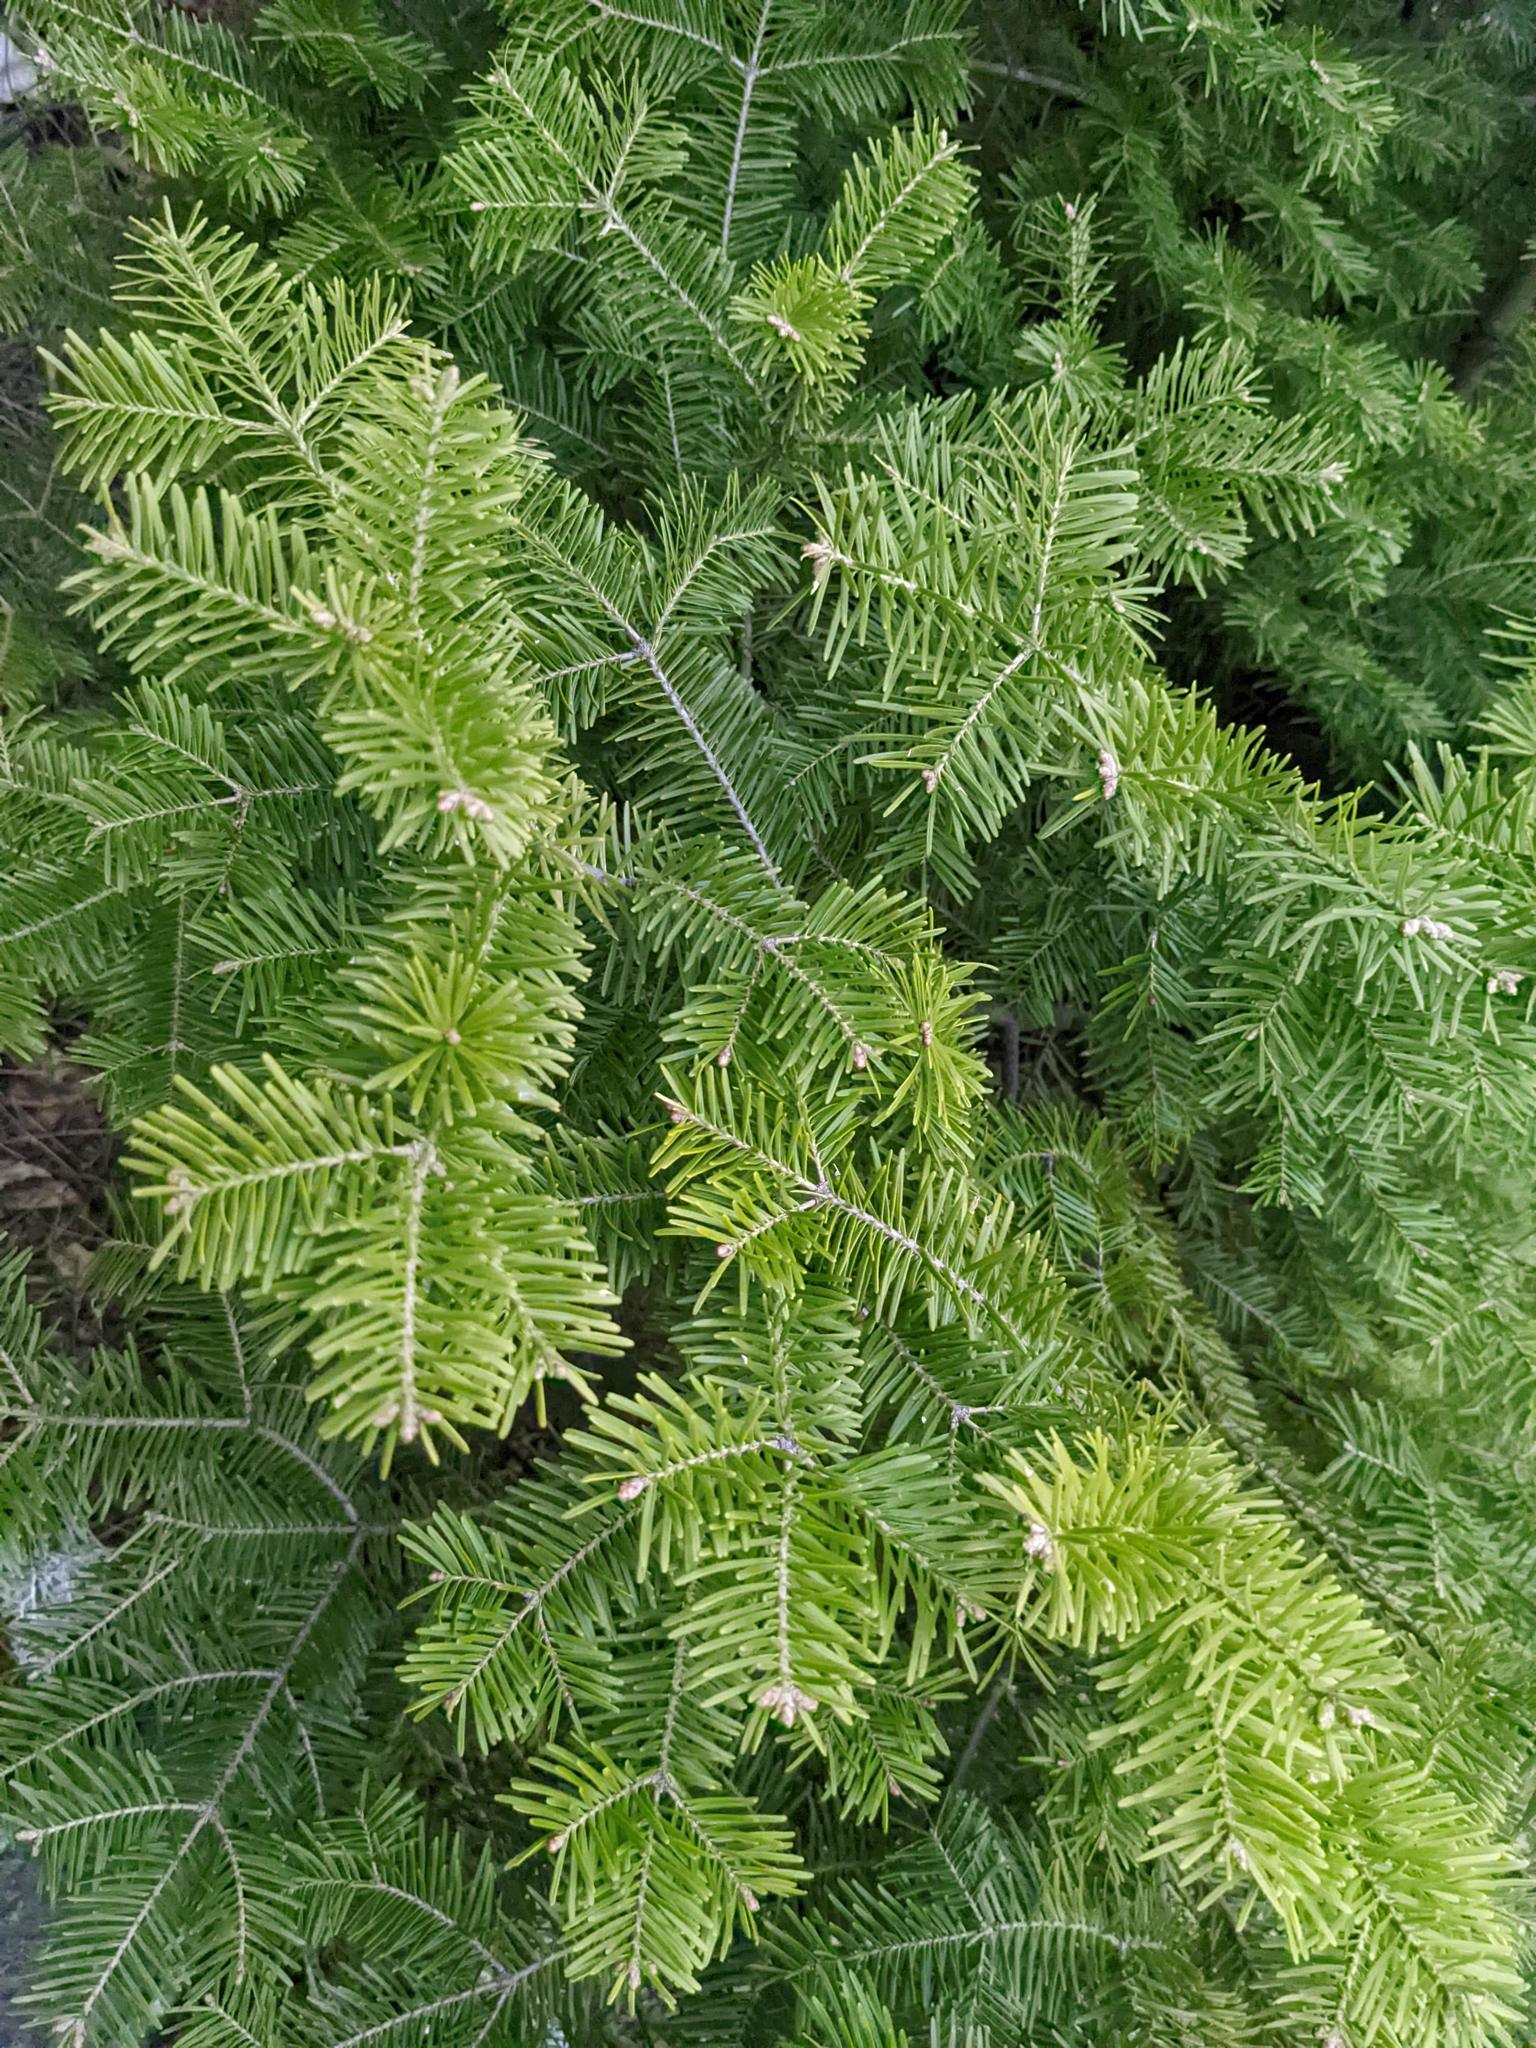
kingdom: Plantae
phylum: Tracheophyta
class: Pinopsida
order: Pinales
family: Pinaceae
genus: Abies
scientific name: Abies balsamea
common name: Balsam fir
